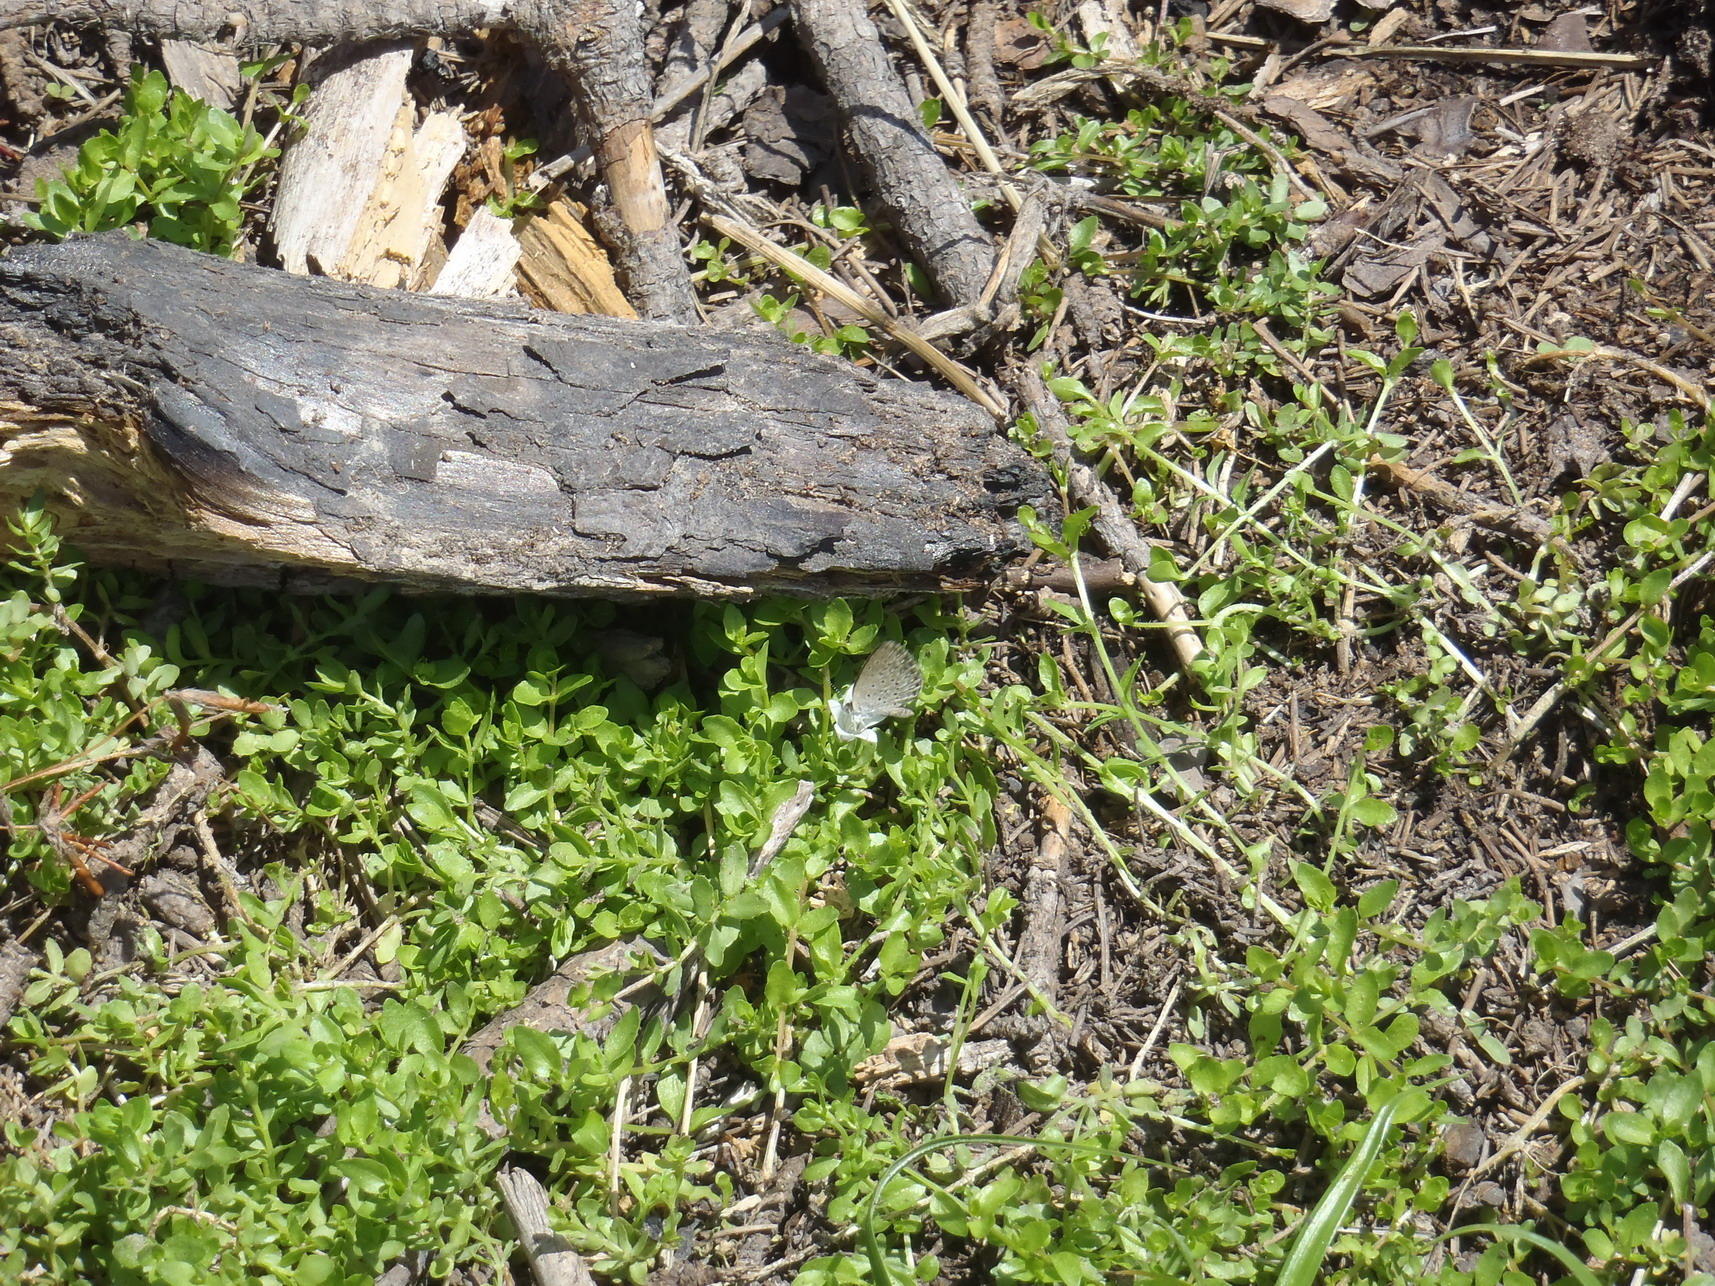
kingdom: Plantae
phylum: Tracheophyta
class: Magnoliopsida
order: Asterales
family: Campanulaceae
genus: Wahlenbergia
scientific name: Wahlenbergia procumbens
